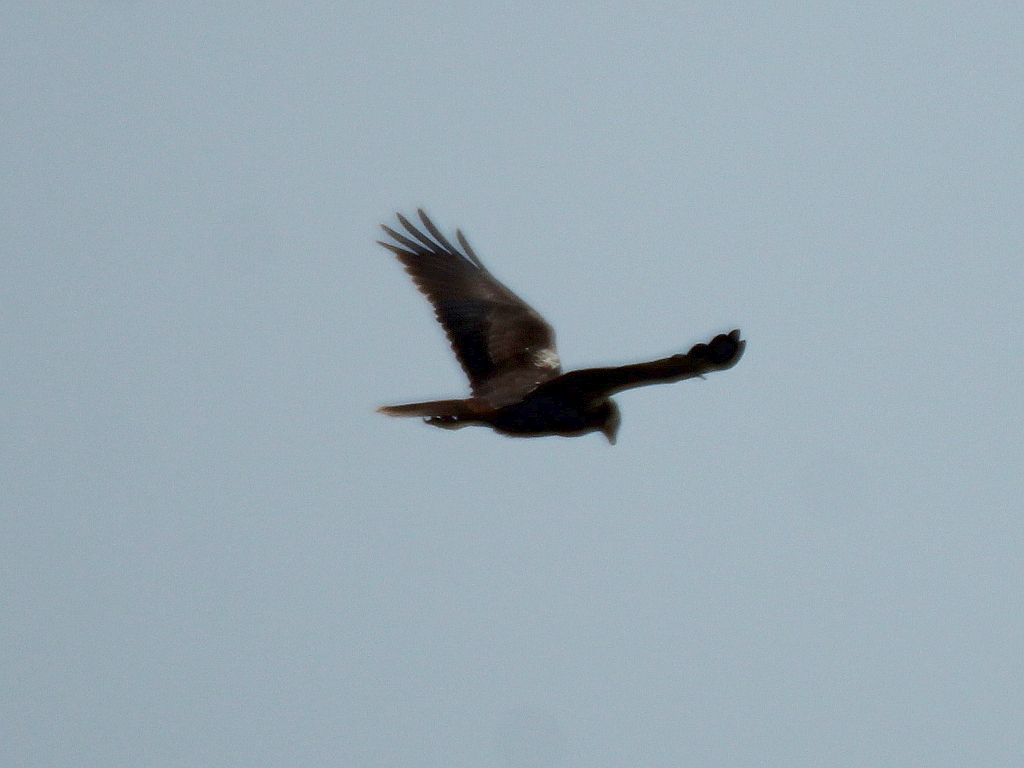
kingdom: Animalia
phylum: Chordata
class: Aves
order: Accipitriformes
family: Accipitridae
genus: Circus
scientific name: Circus aeruginosus
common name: Western marsh harrier
